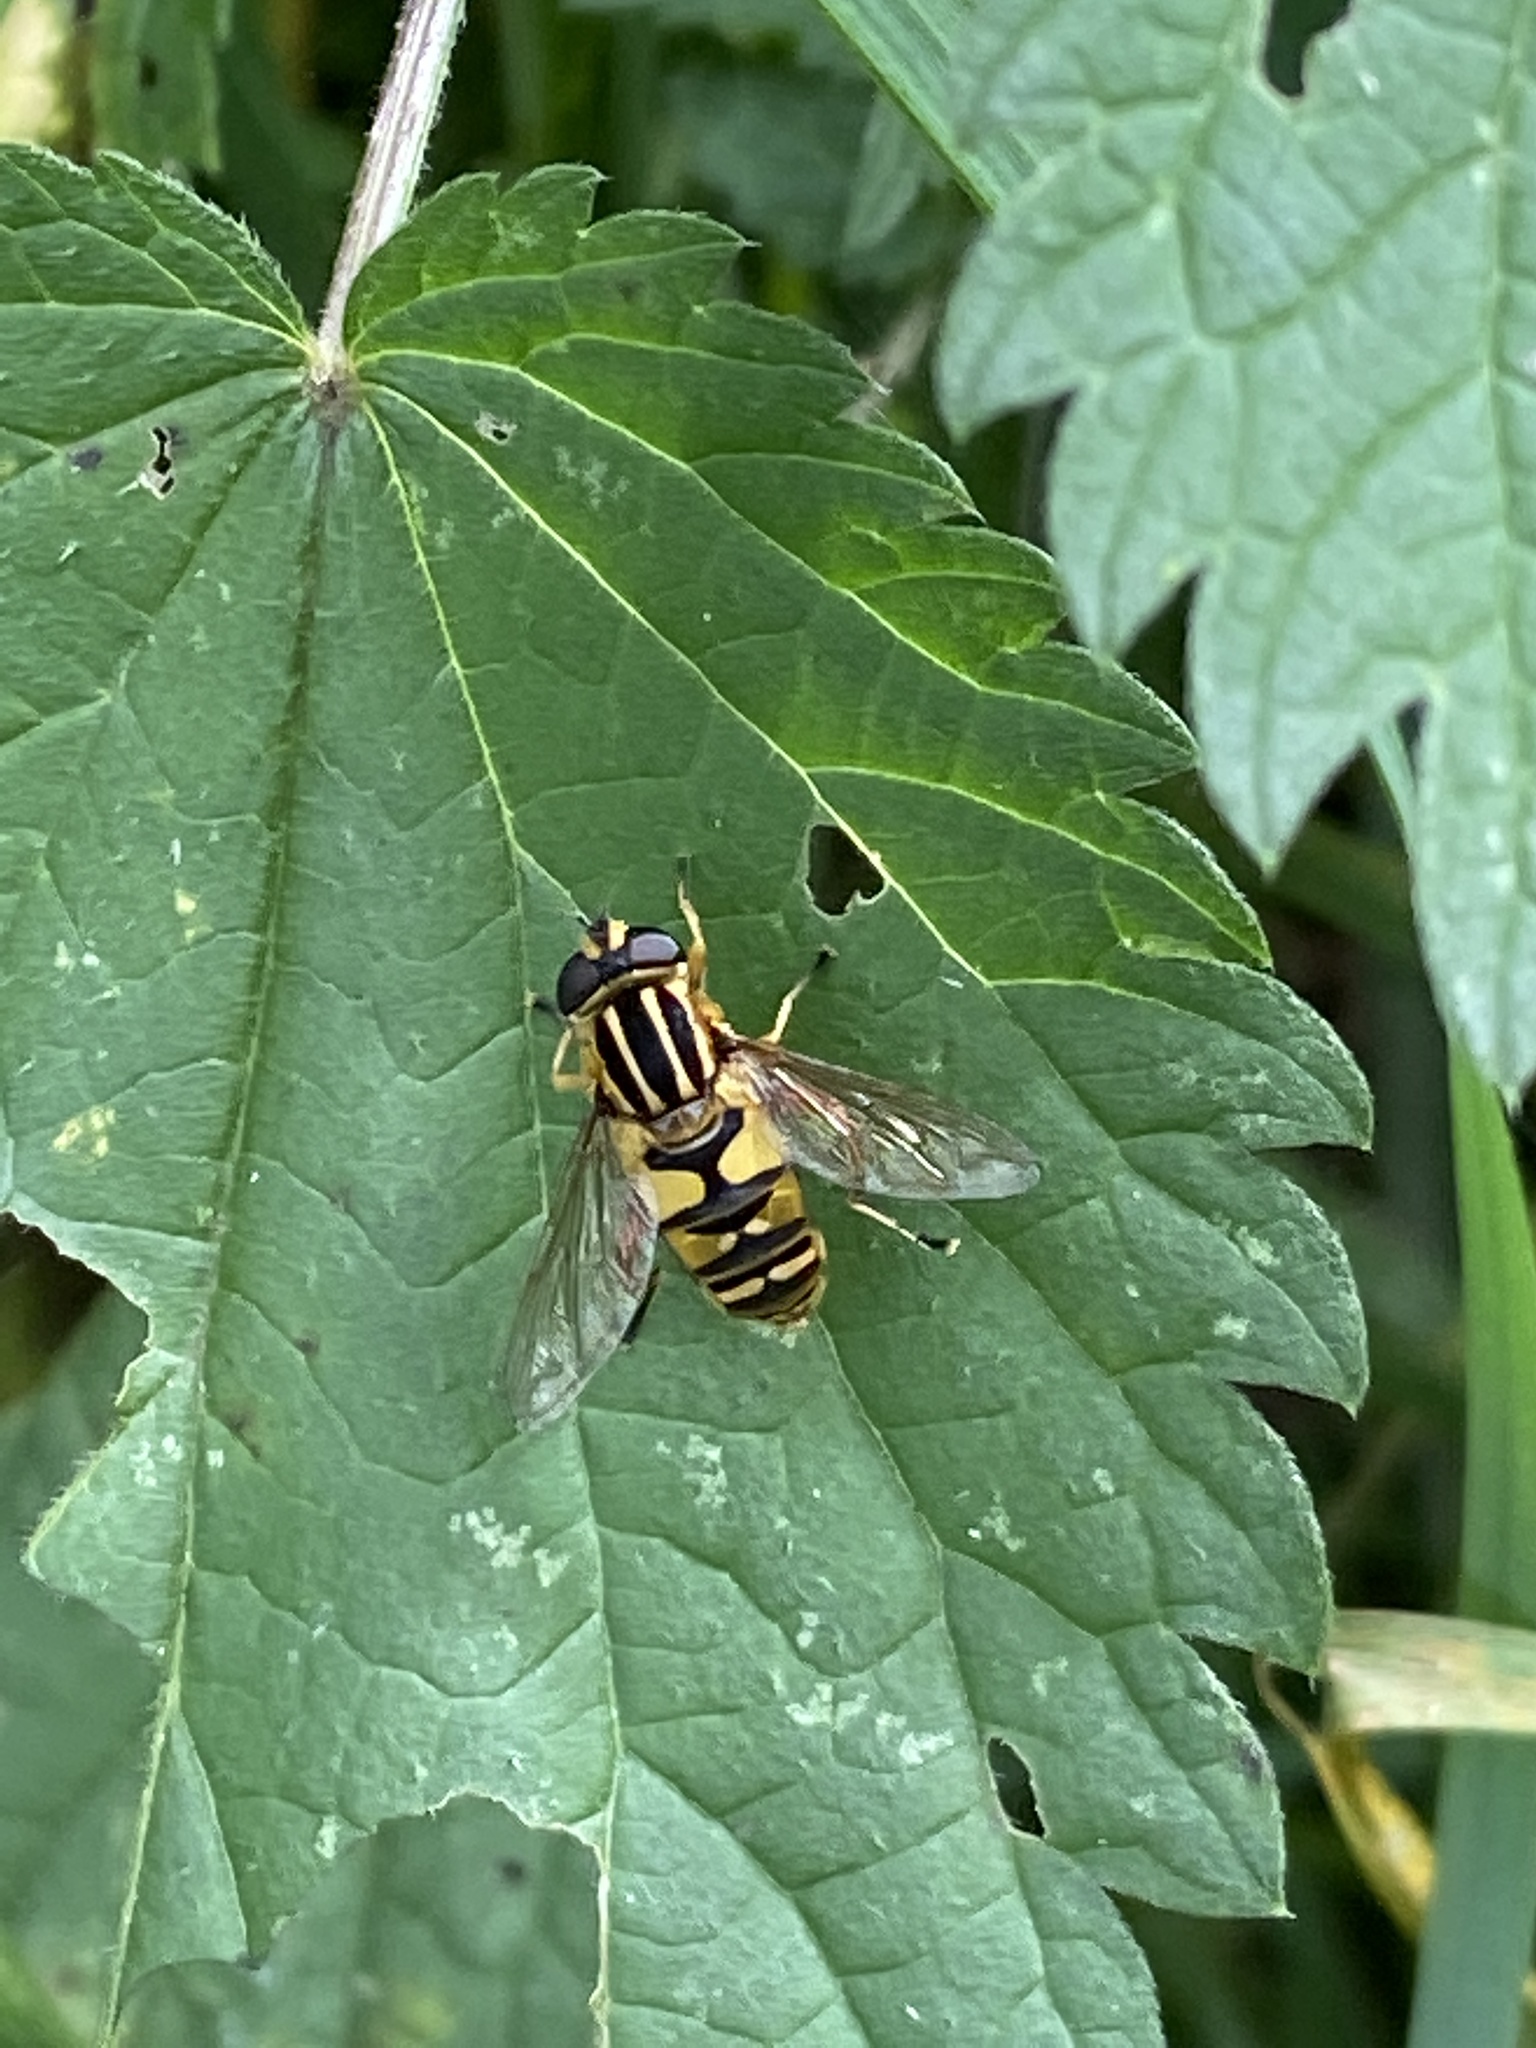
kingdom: Animalia
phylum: Arthropoda
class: Insecta
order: Diptera
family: Syrphidae
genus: Helophilus
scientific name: Helophilus pendulus
